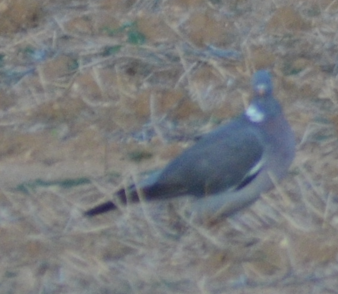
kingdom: Animalia
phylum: Chordata
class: Aves
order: Columbiformes
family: Columbidae
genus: Columba
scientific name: Columba palumbus
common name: Common wood pigeon
